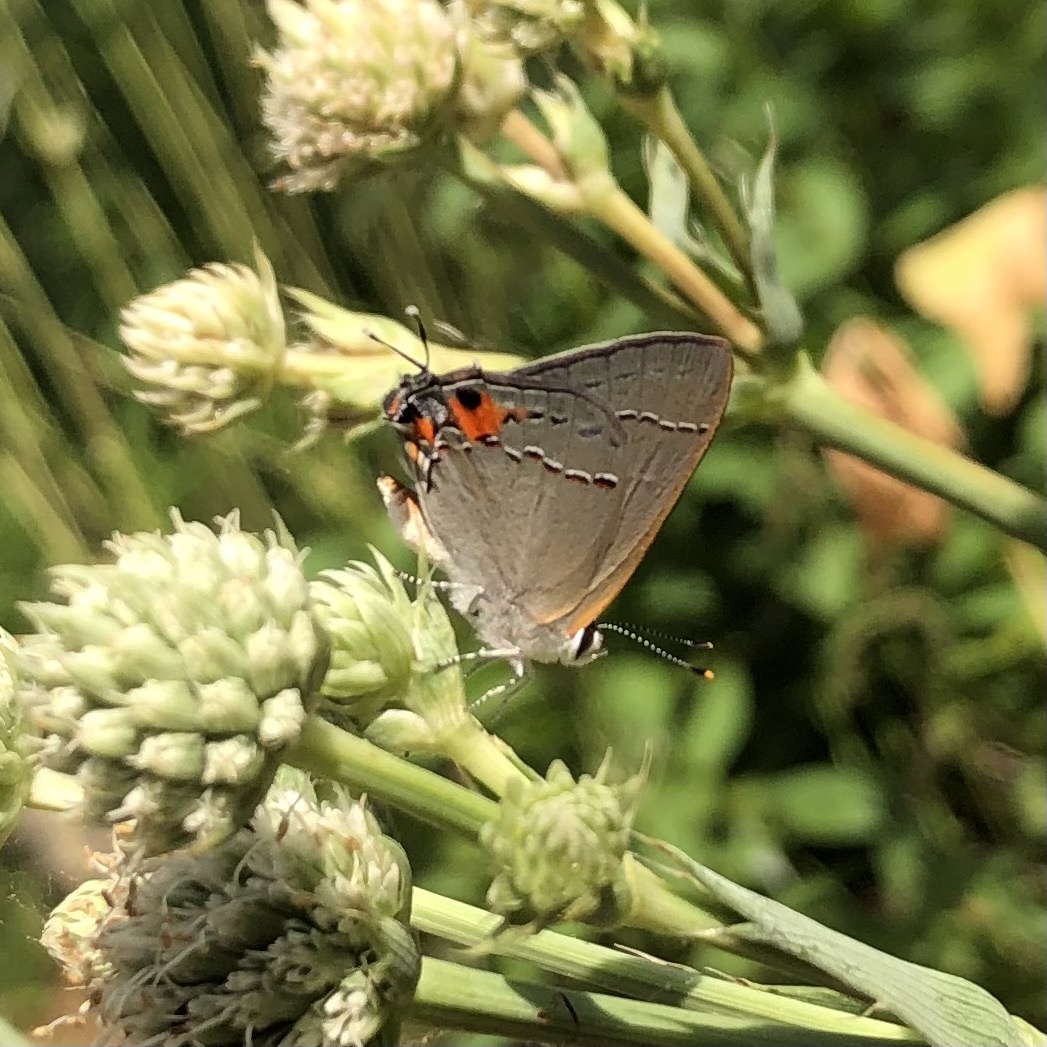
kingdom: Animalia
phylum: Arthropoda
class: Insecta
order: Lepidoptera
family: Lycaenidae
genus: Strymon
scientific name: Strymon melinus
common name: Gray hairstreak
